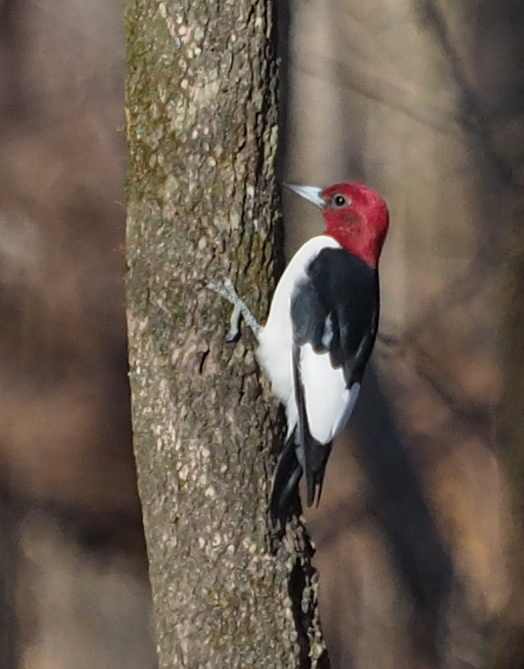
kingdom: Animalia
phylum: Chordata
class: Aves
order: Piciformes
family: Picidae
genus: Melanerpes
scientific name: Melanerpes erythrocephalus
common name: Red-headed woodpecker
